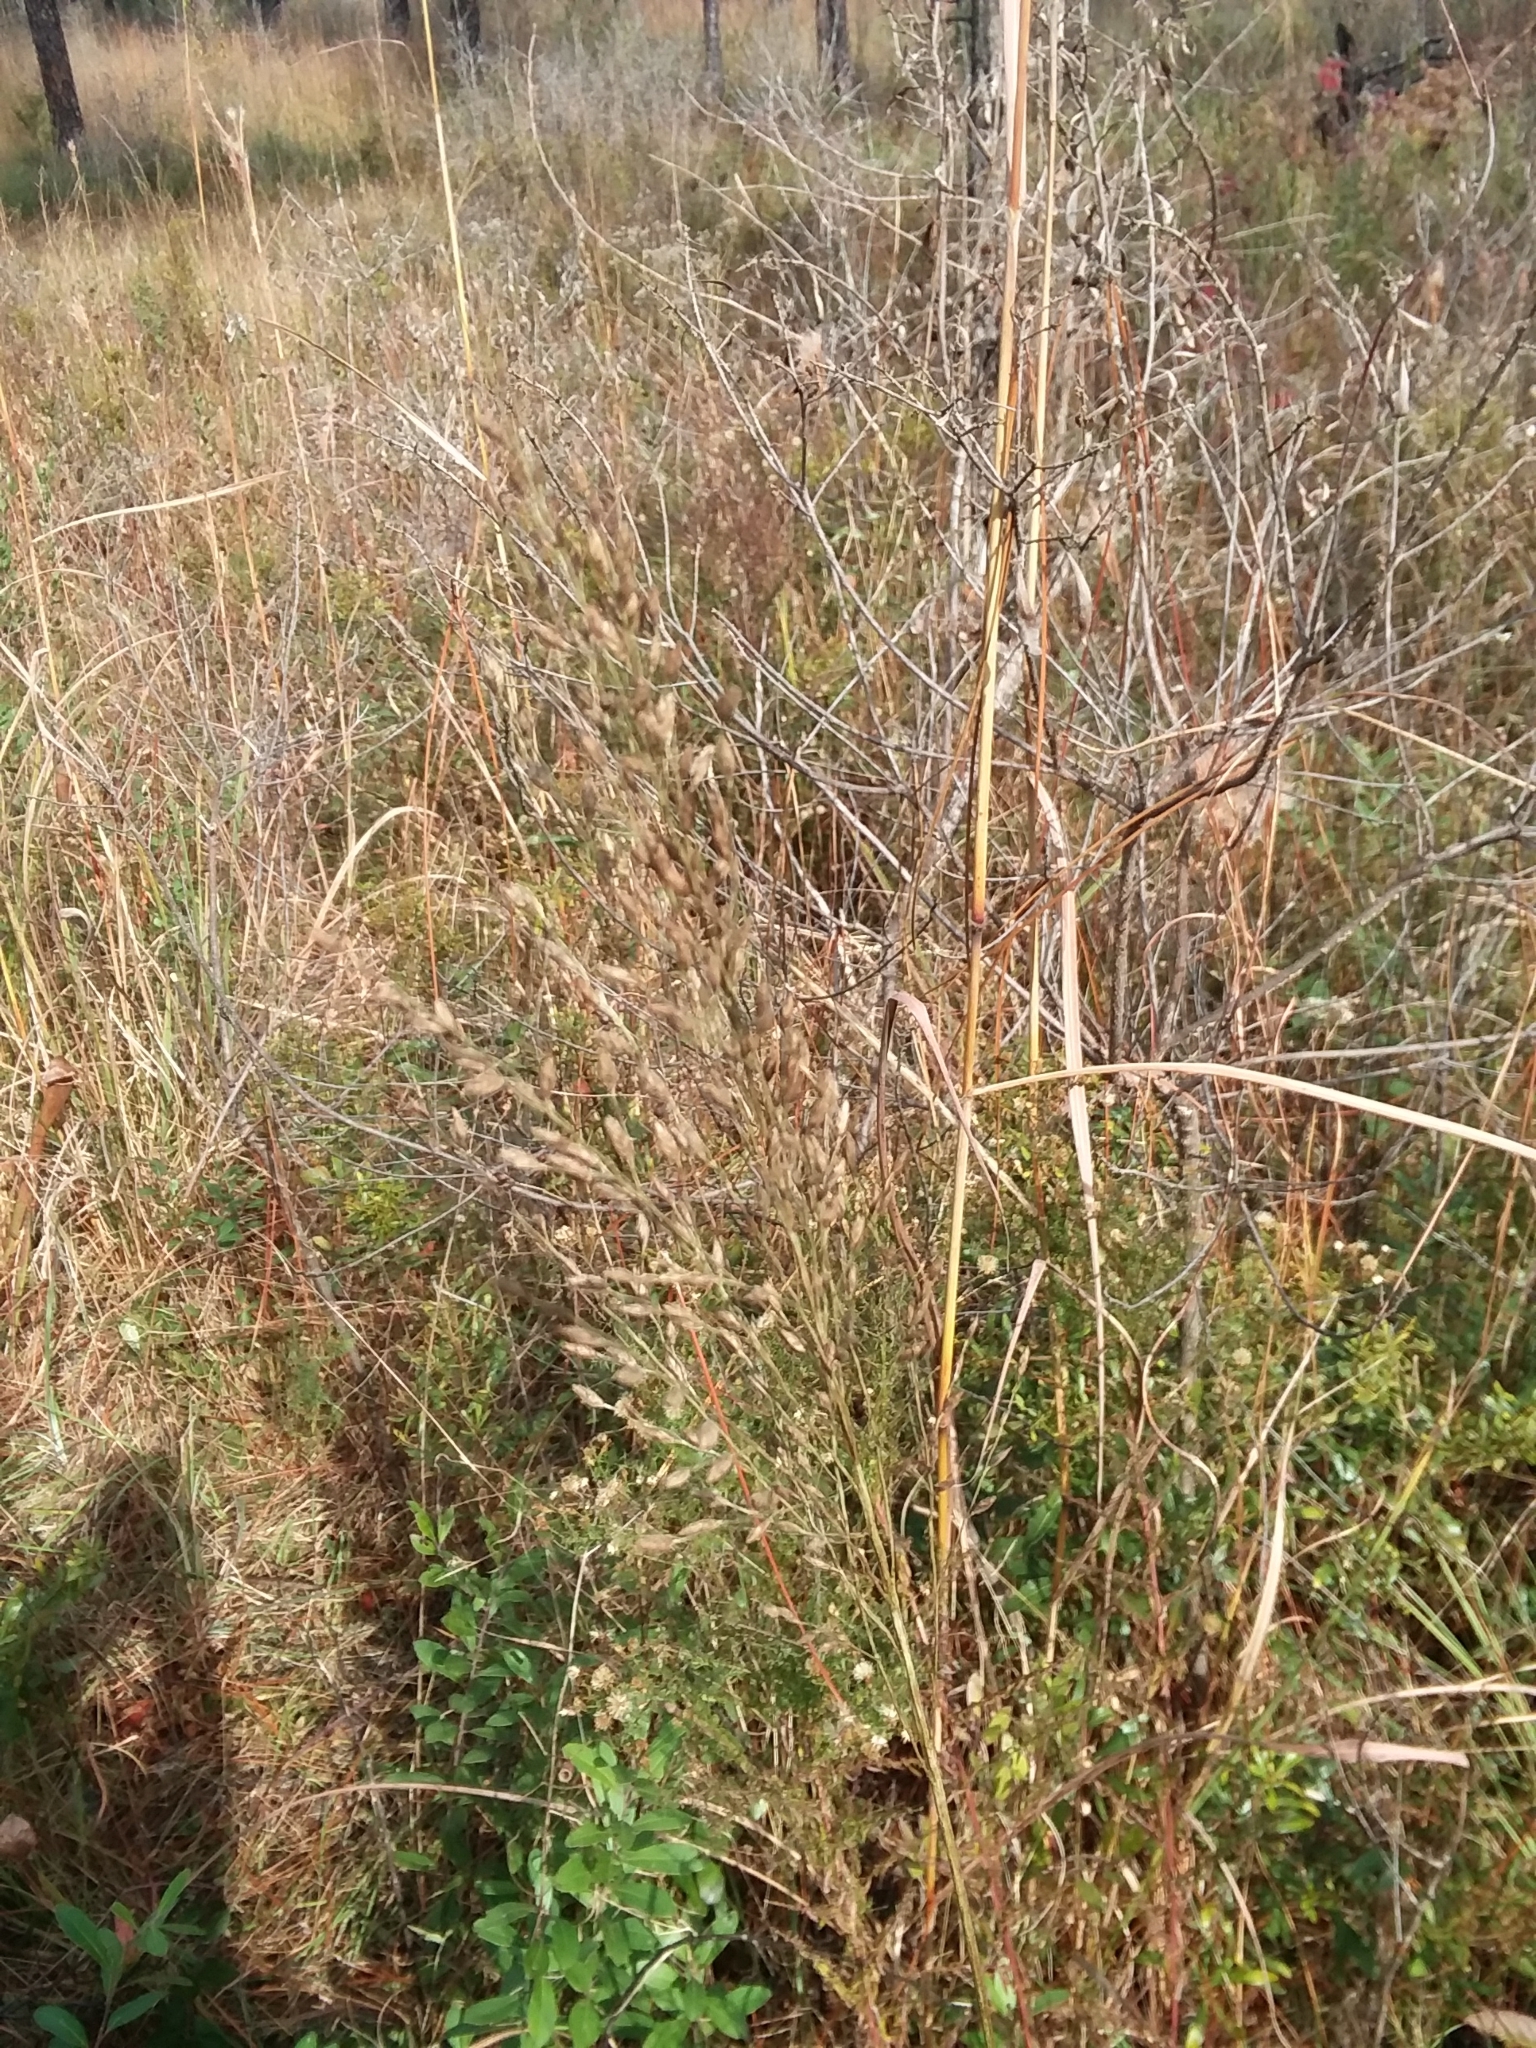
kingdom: Plantae
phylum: Tracheophyta
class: Liliopsida
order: Poales
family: Poaceae
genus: Tridens
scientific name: Tridens ambiguus
